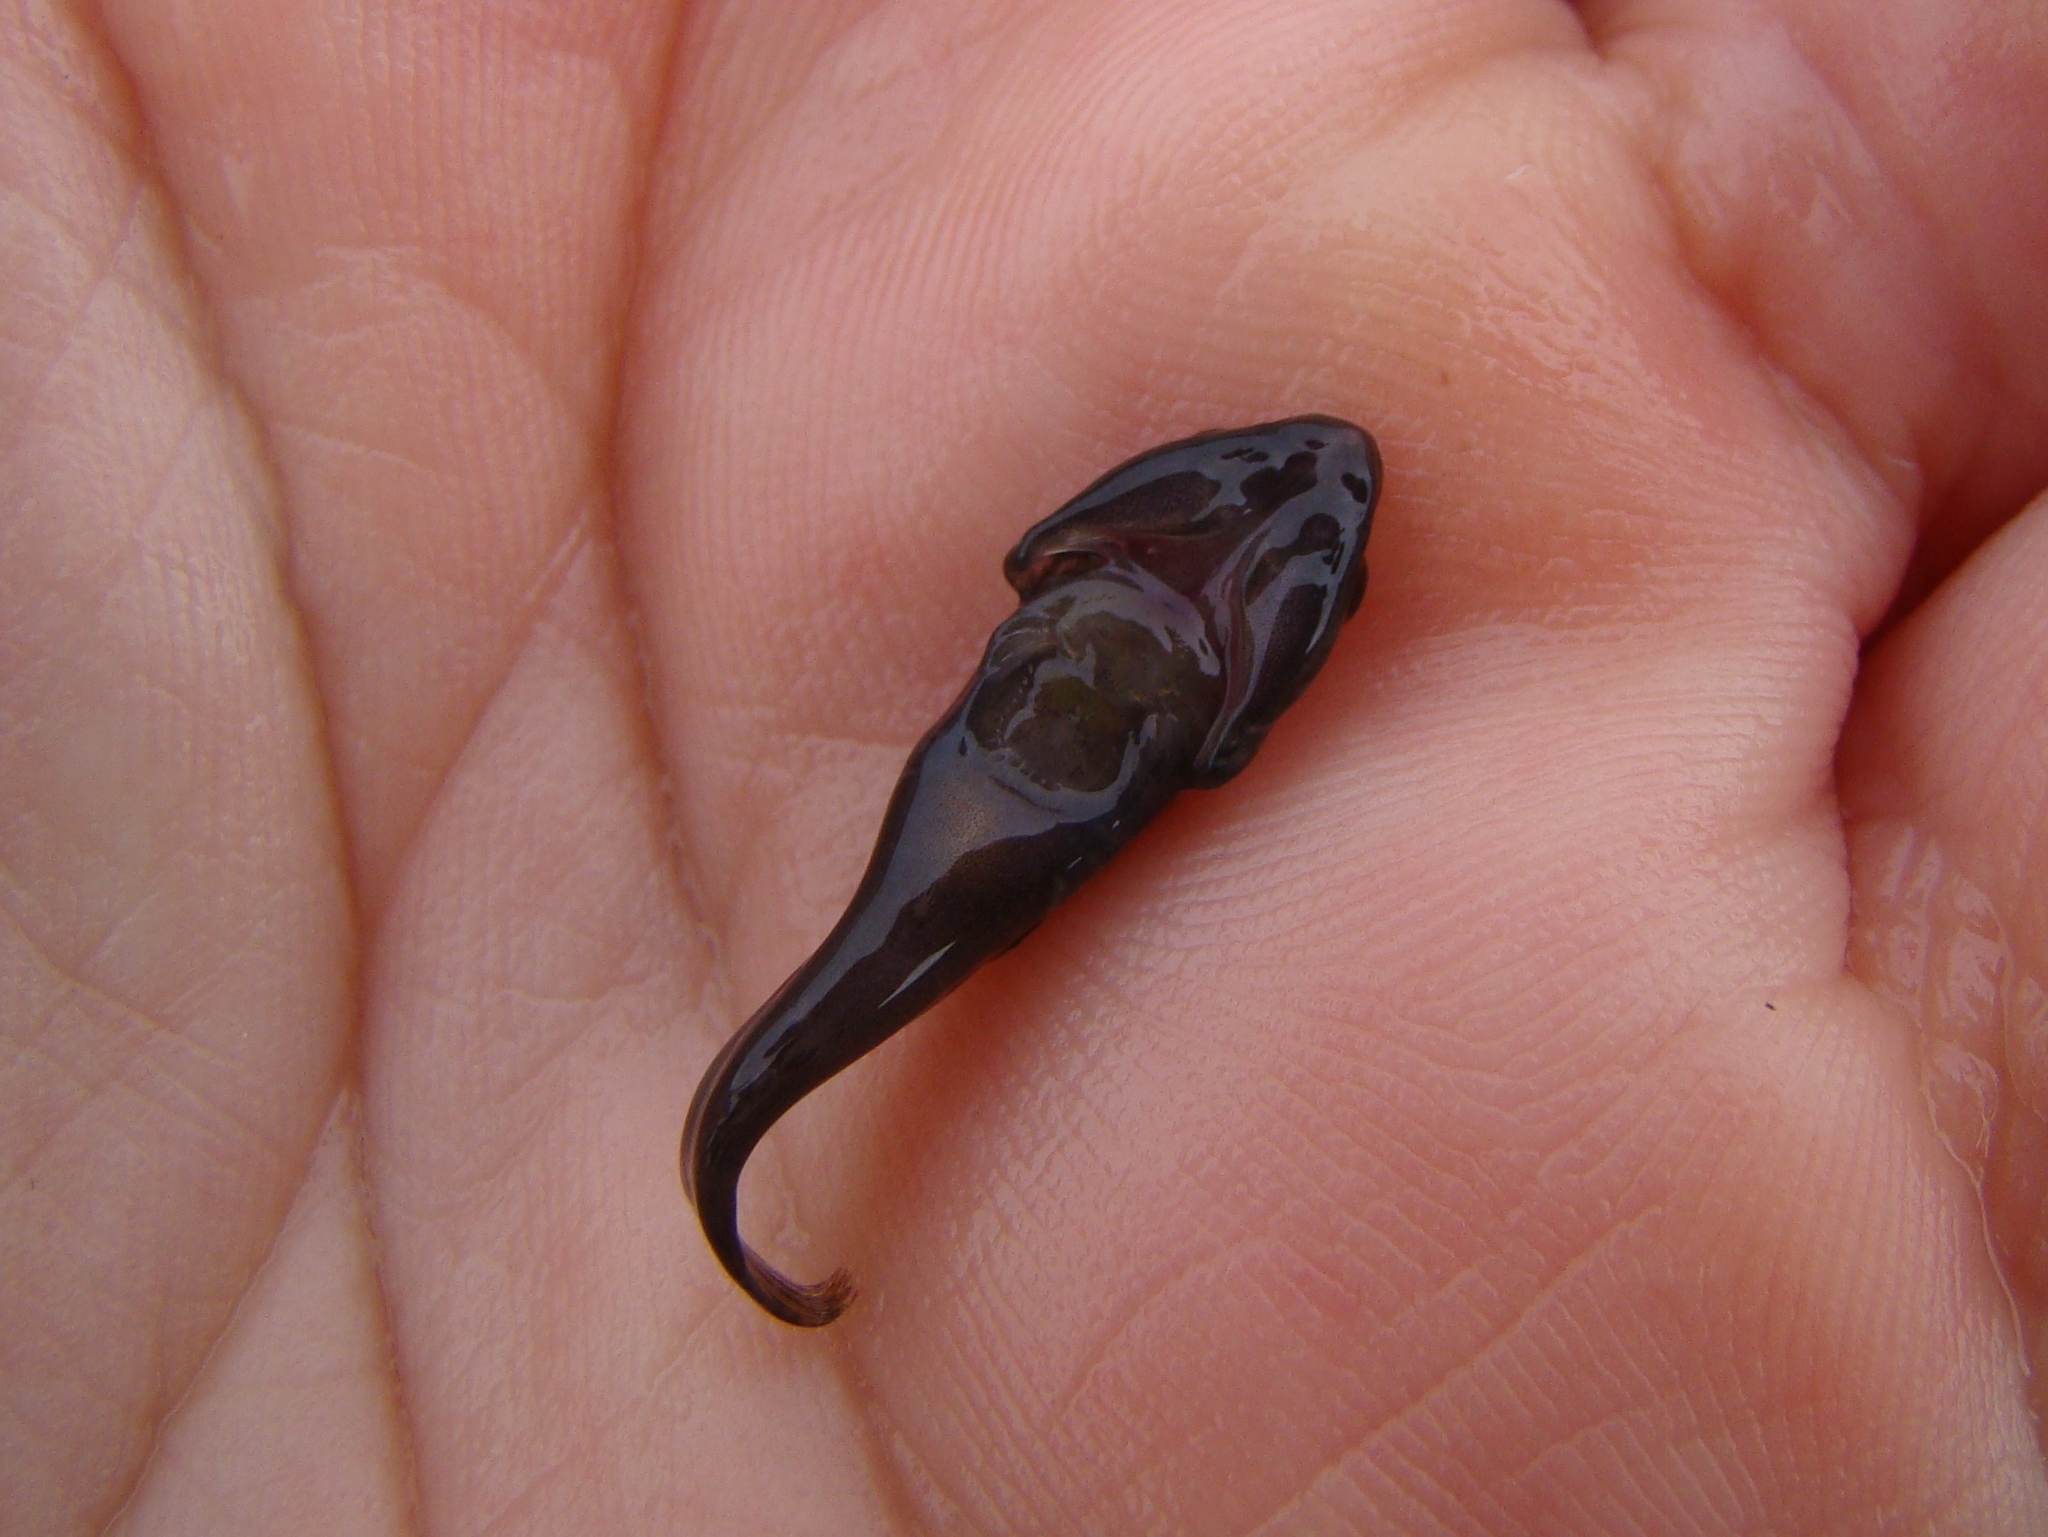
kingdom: Animalia
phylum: Chordata
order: Gobiesociformes
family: Gobiesocidae
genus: Trachelochismus
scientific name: Trachelochismus aestuarium
